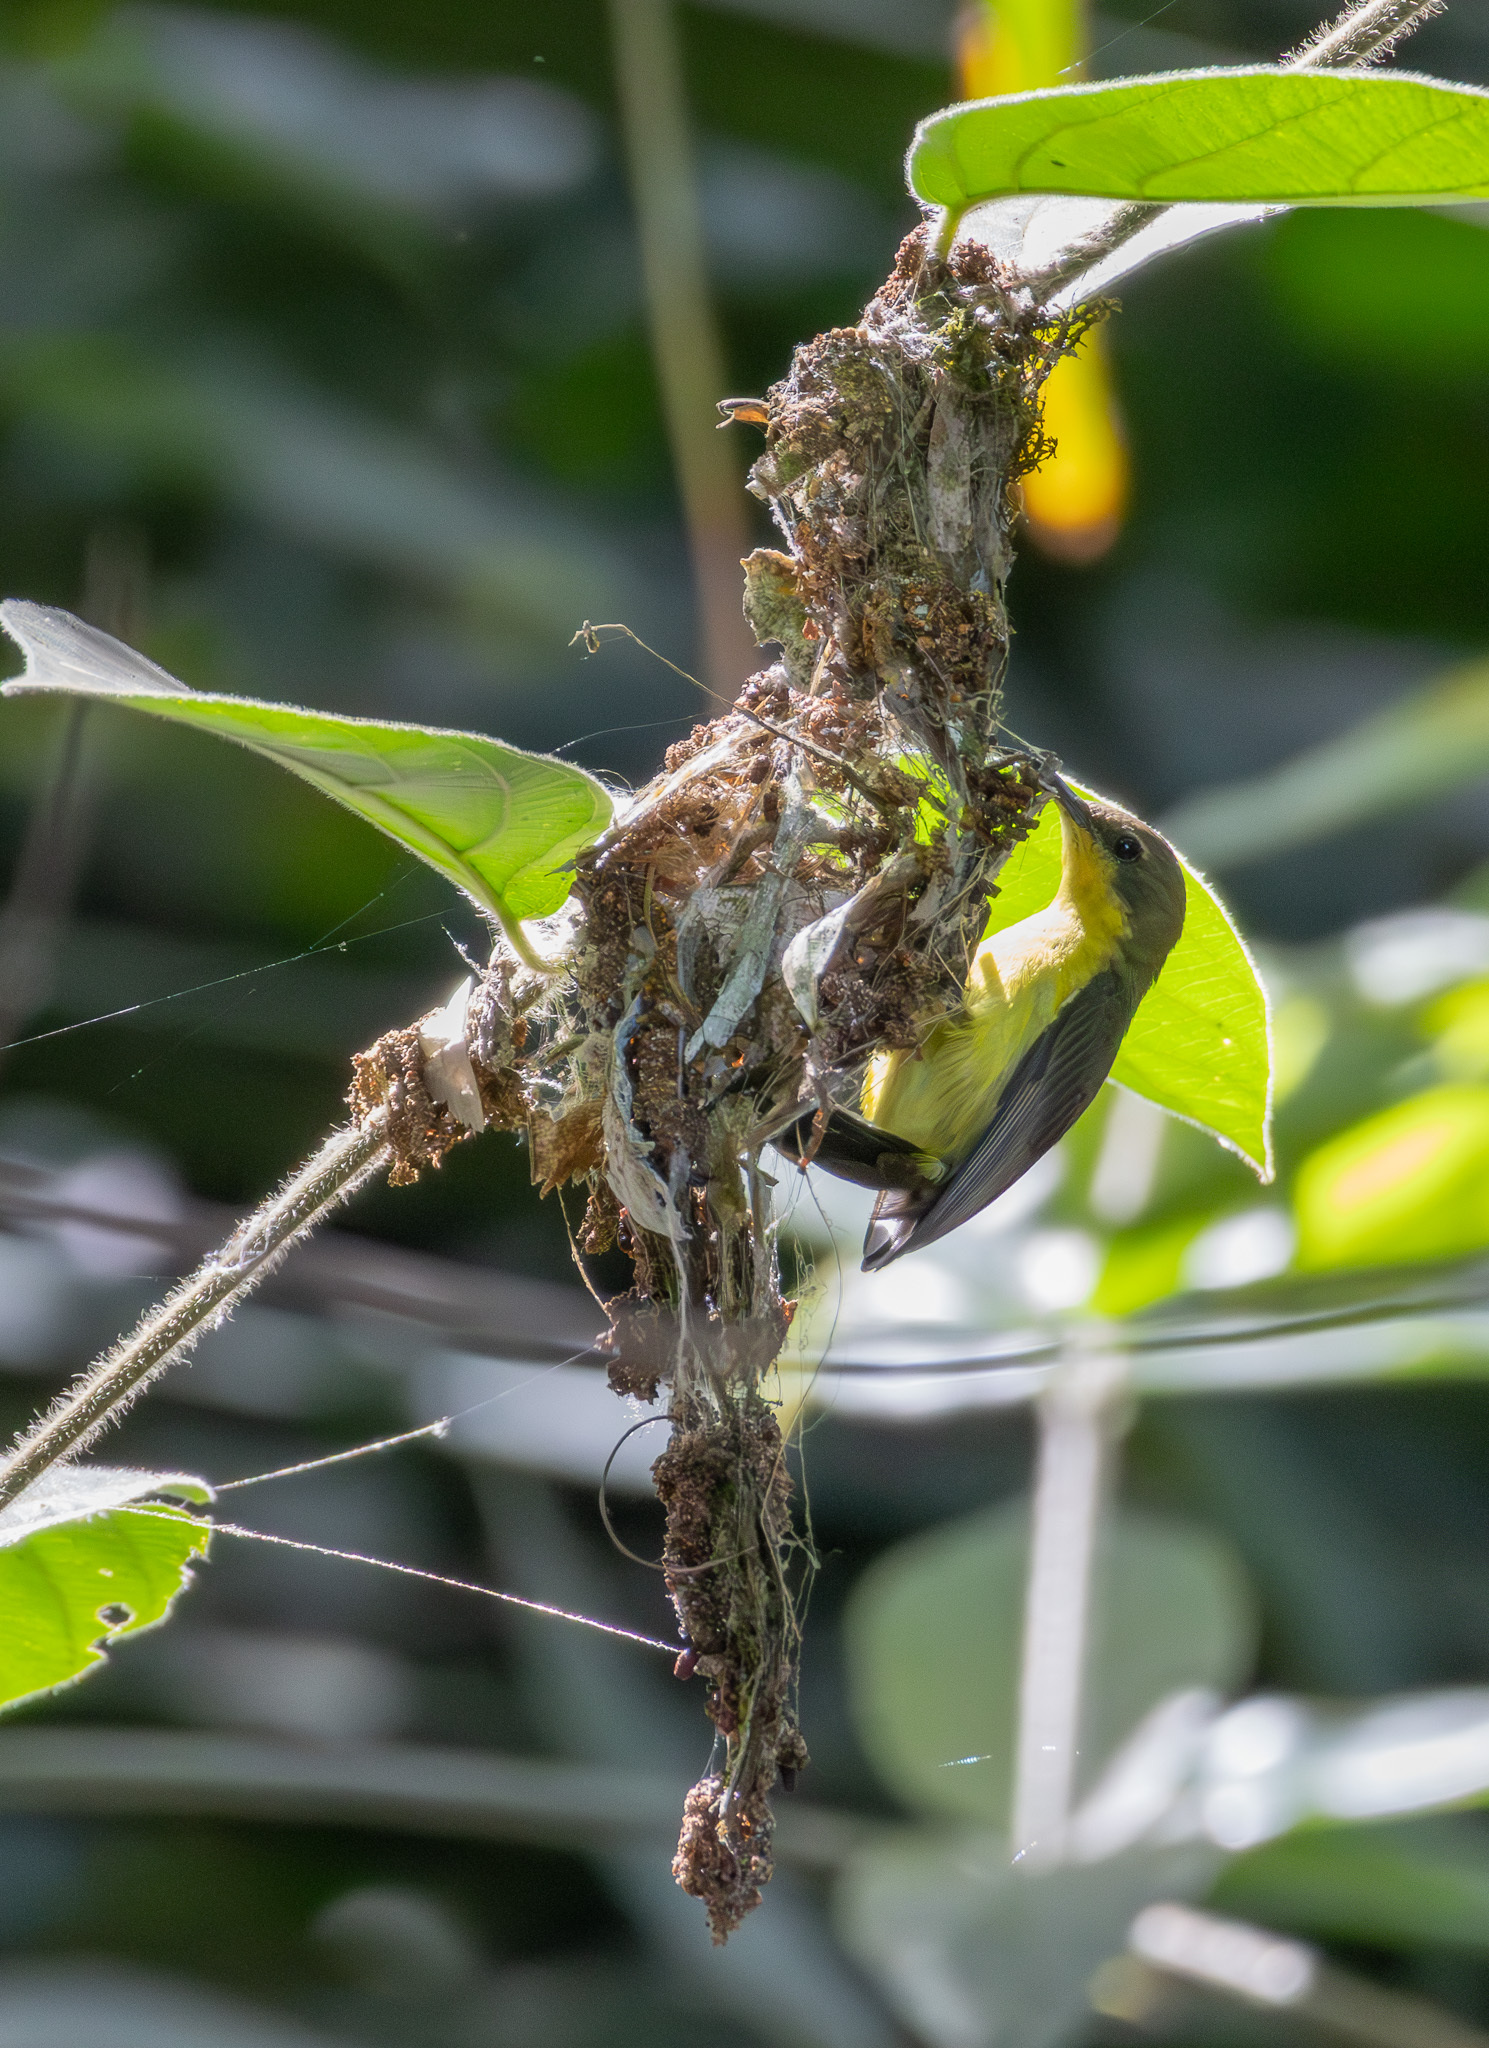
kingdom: Animalia
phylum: Chordata
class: Aves
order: Passeriformes
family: Nectariniidae
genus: Cinnyris
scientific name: Cinnyris
